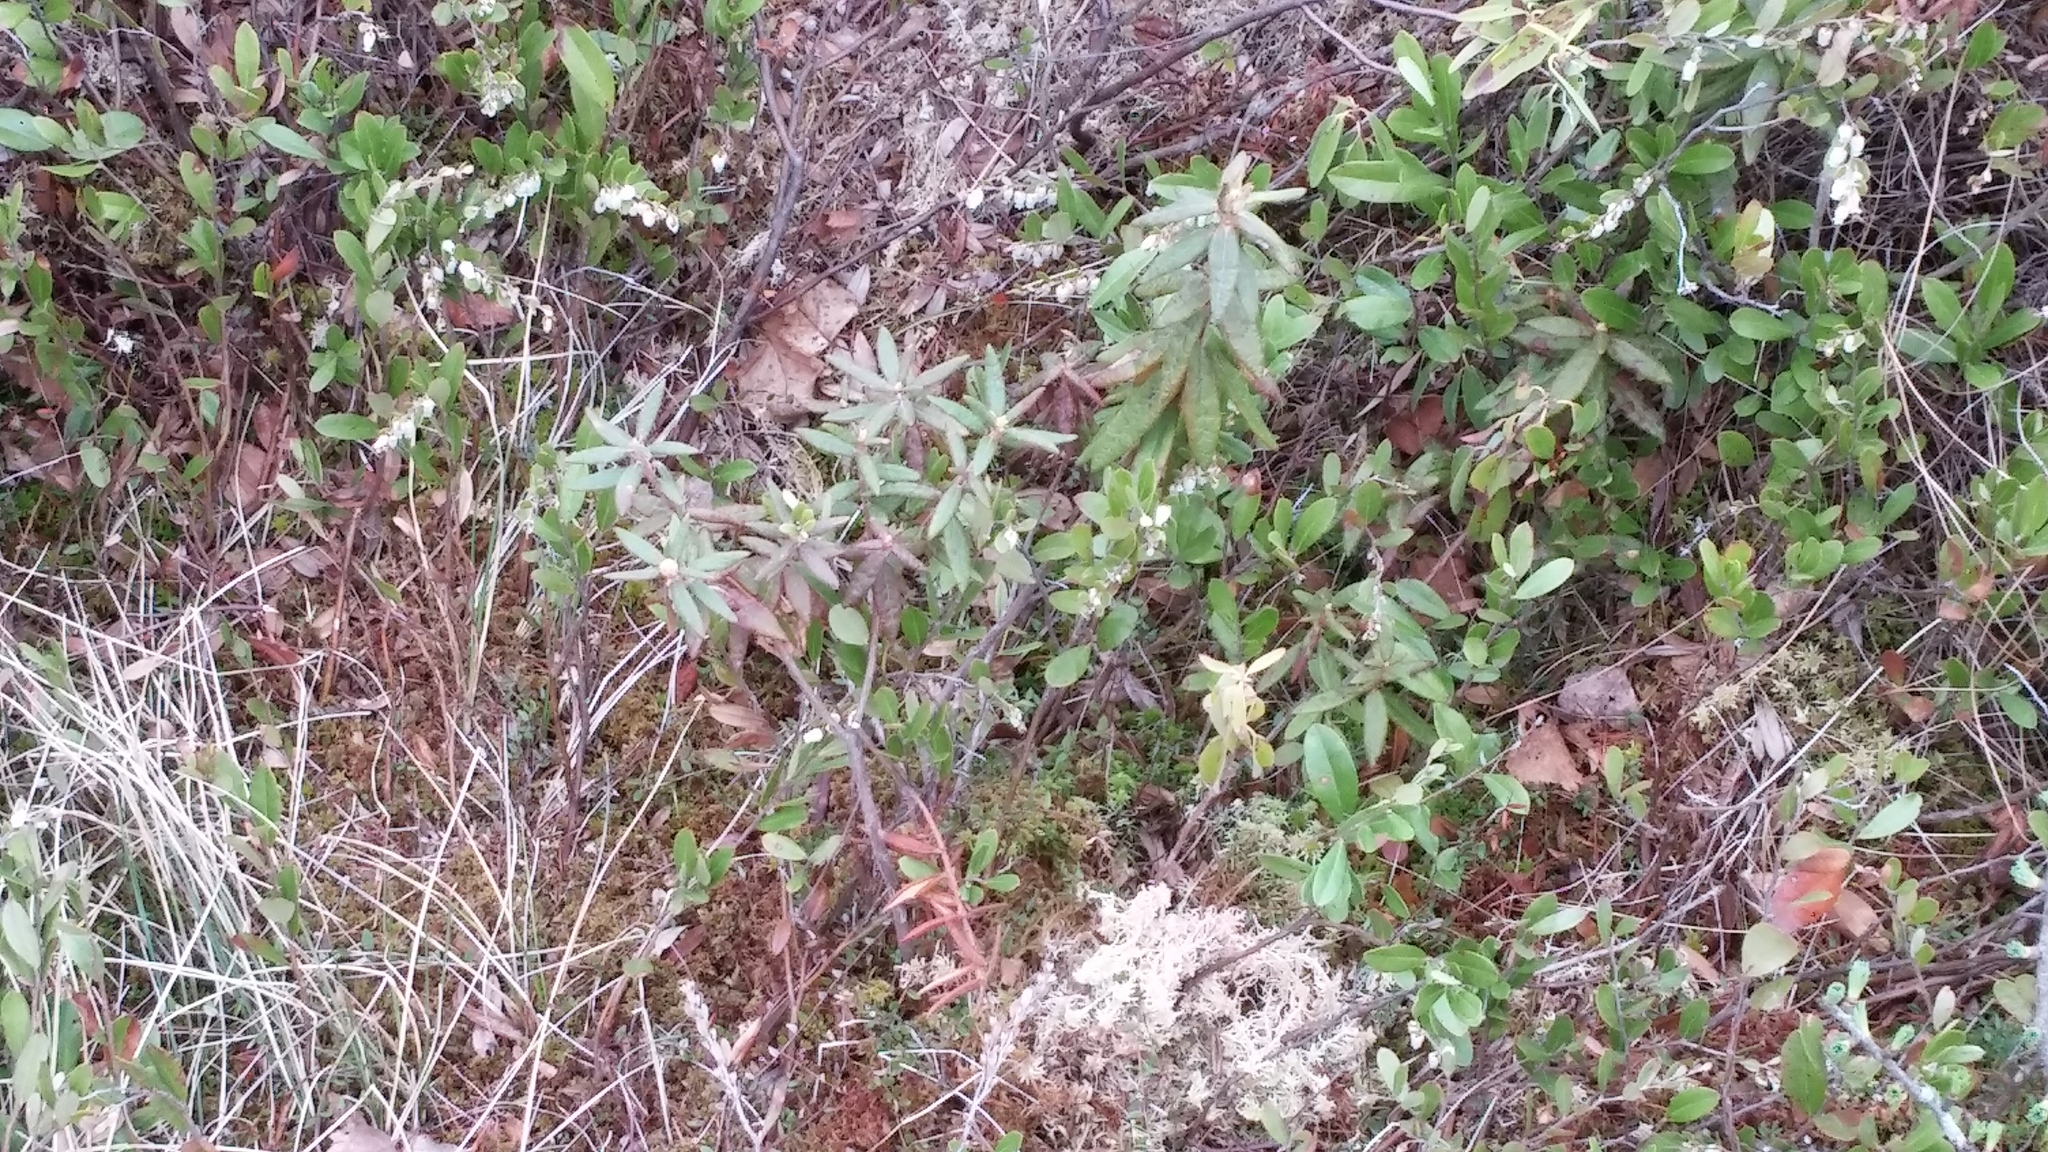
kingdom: Plantae
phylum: Tracheophyta
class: Magnoliopsida
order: Ericales
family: Ericaceae
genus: Rhododendron
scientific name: Rhododendron groenlandicum
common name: Bog labrador tea
